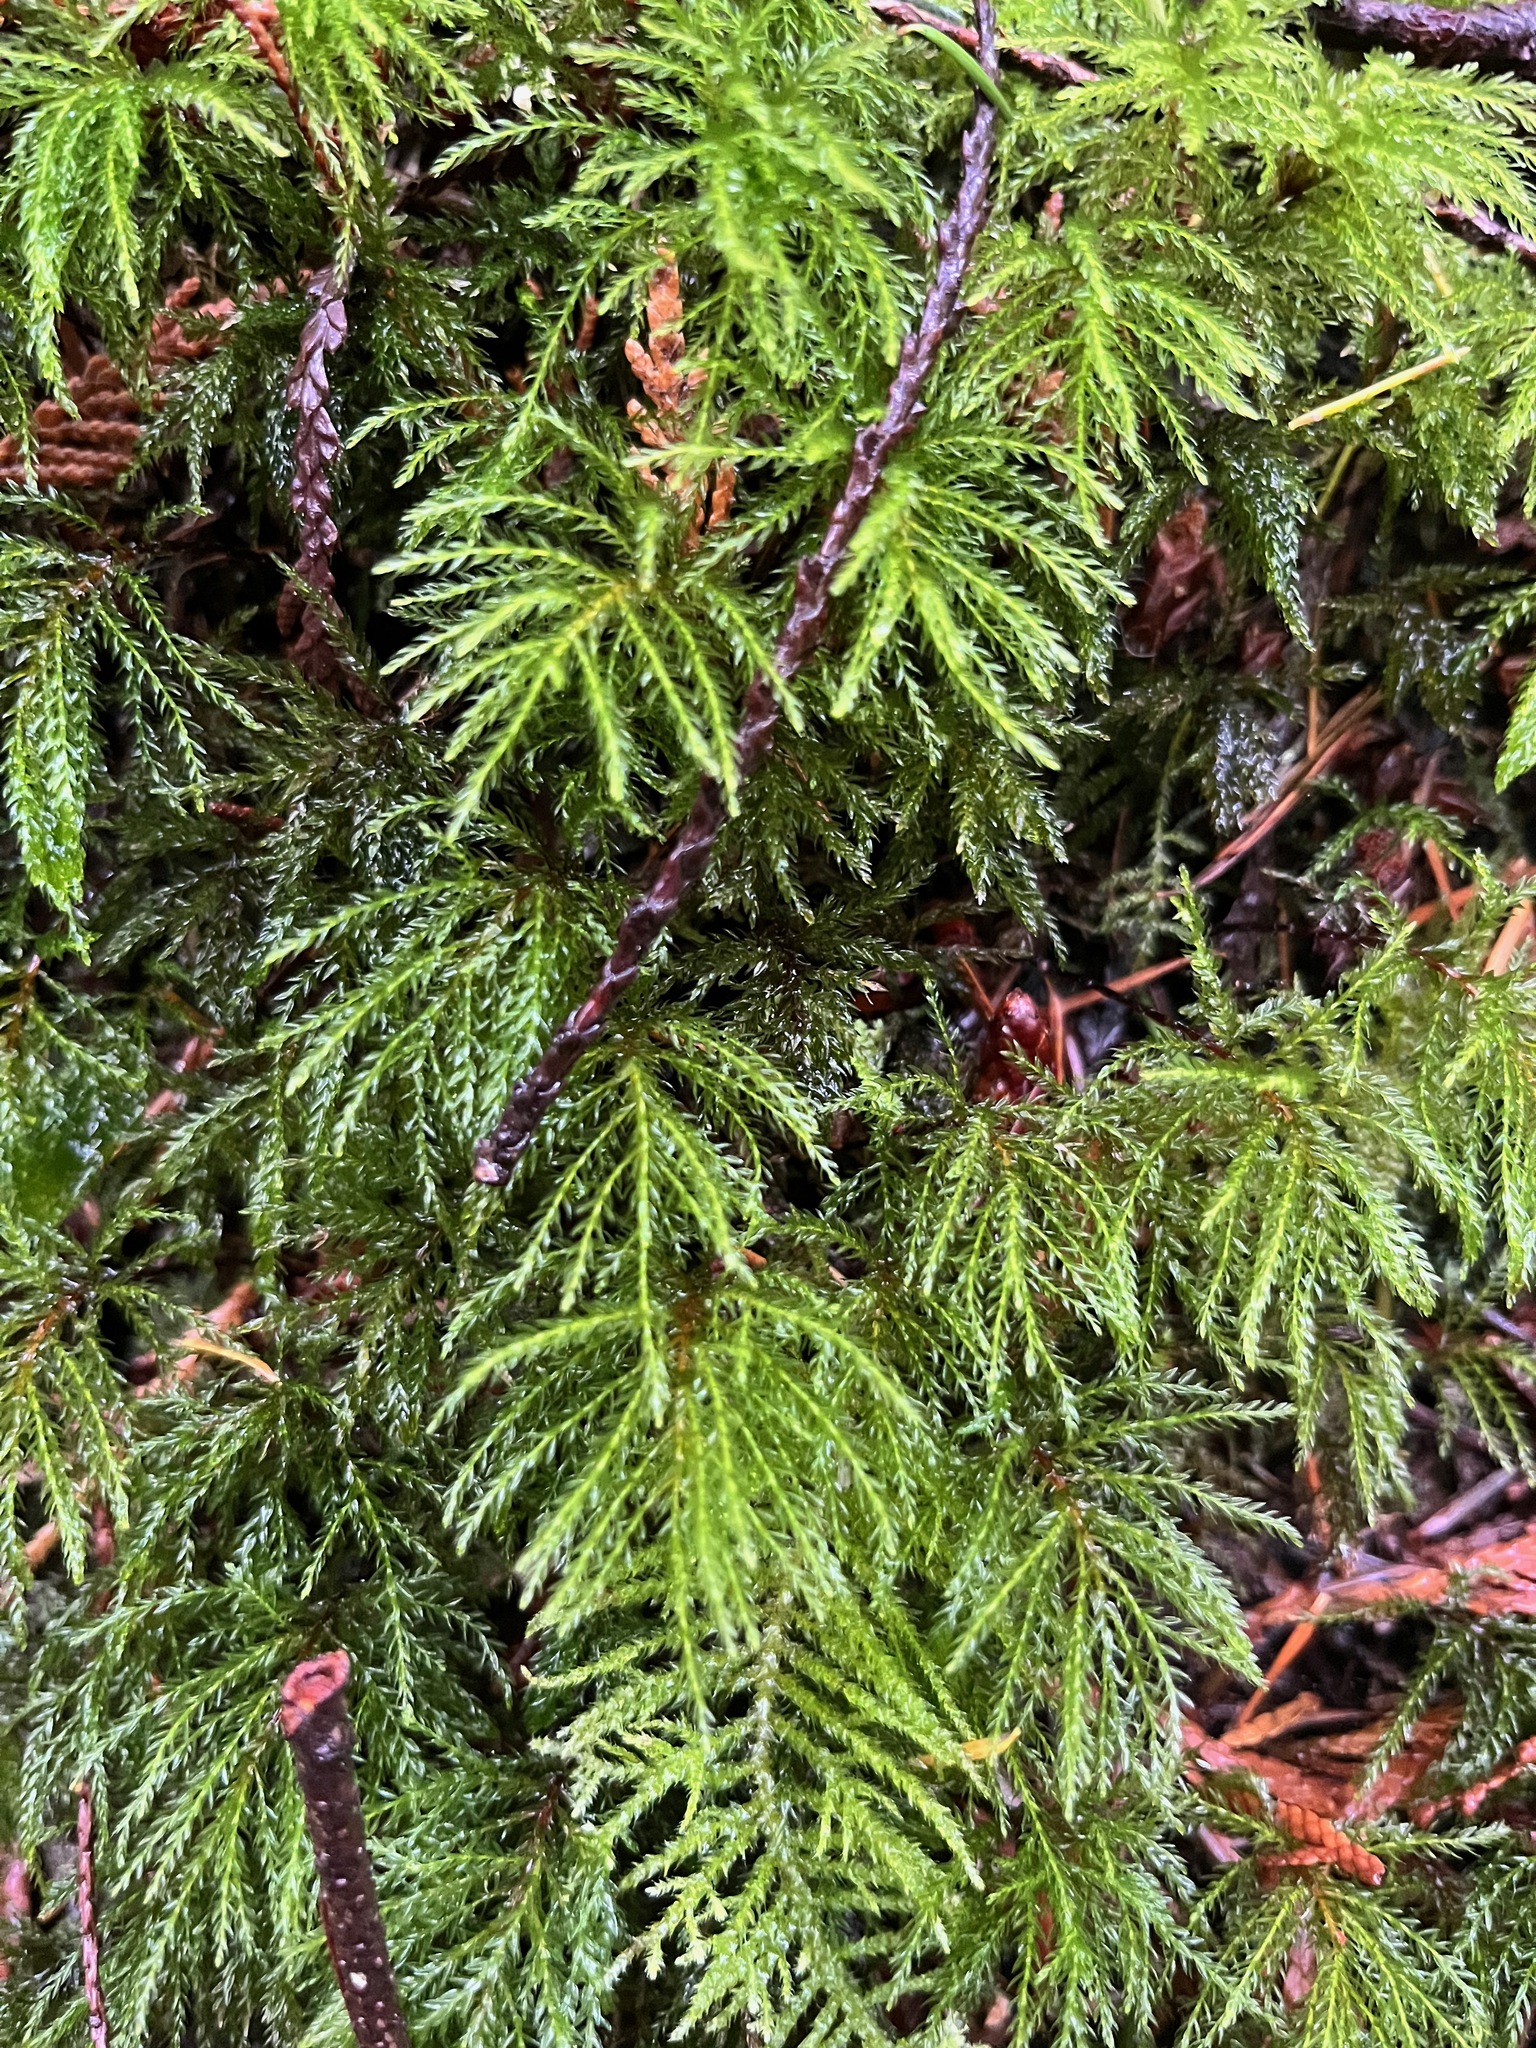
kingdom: Plantae
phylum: Bryophyta
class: Bryopsida
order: Bryales
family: Mniaceae
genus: Leucolepis
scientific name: Leucolepis acanthoneura
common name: Leucolepis umbrella moss
